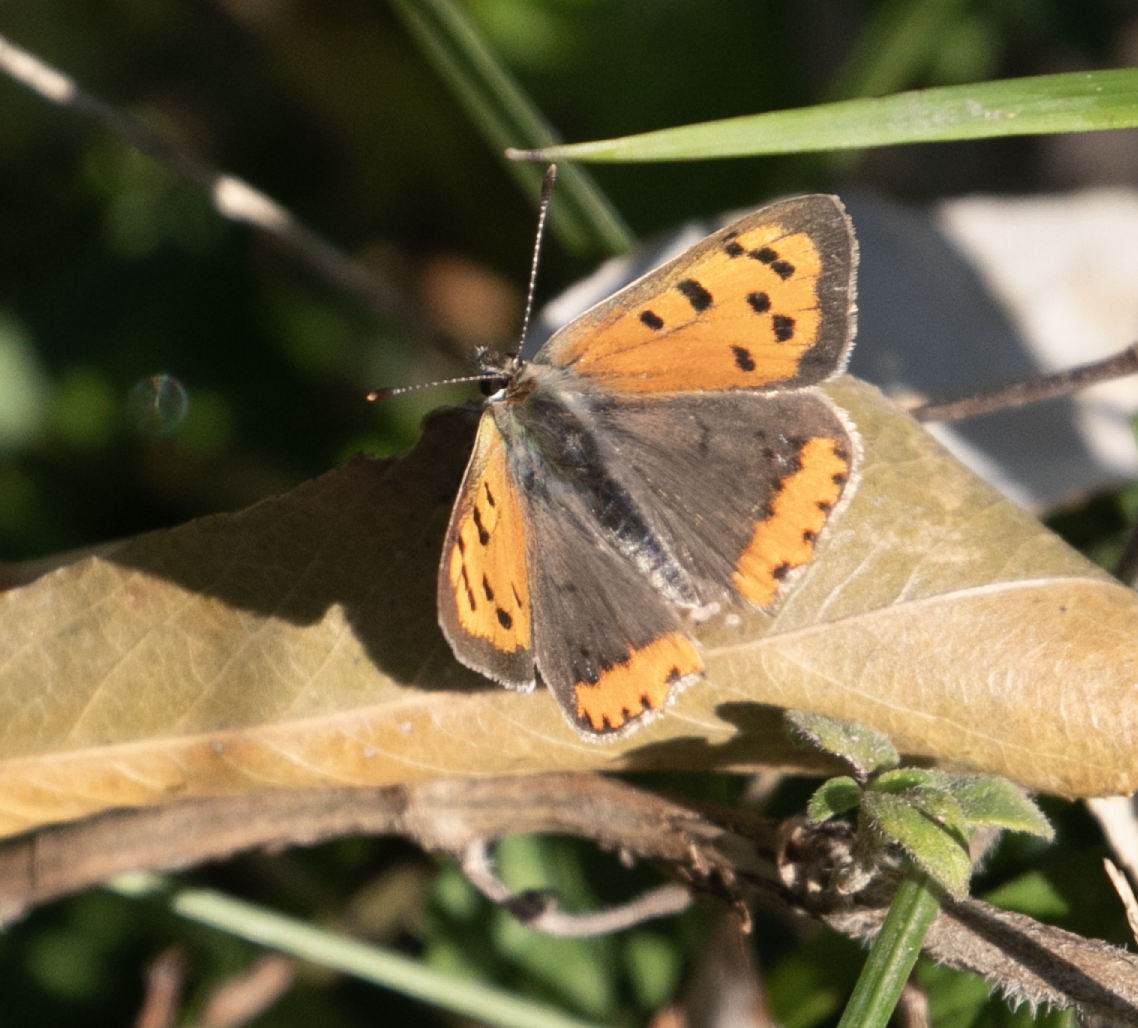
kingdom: Animalia
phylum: Arthropoda
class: Insecta
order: Lepidoptera
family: Lycaenidae
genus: Lycaena
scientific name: Lycaena phlaeas
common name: Small copper
